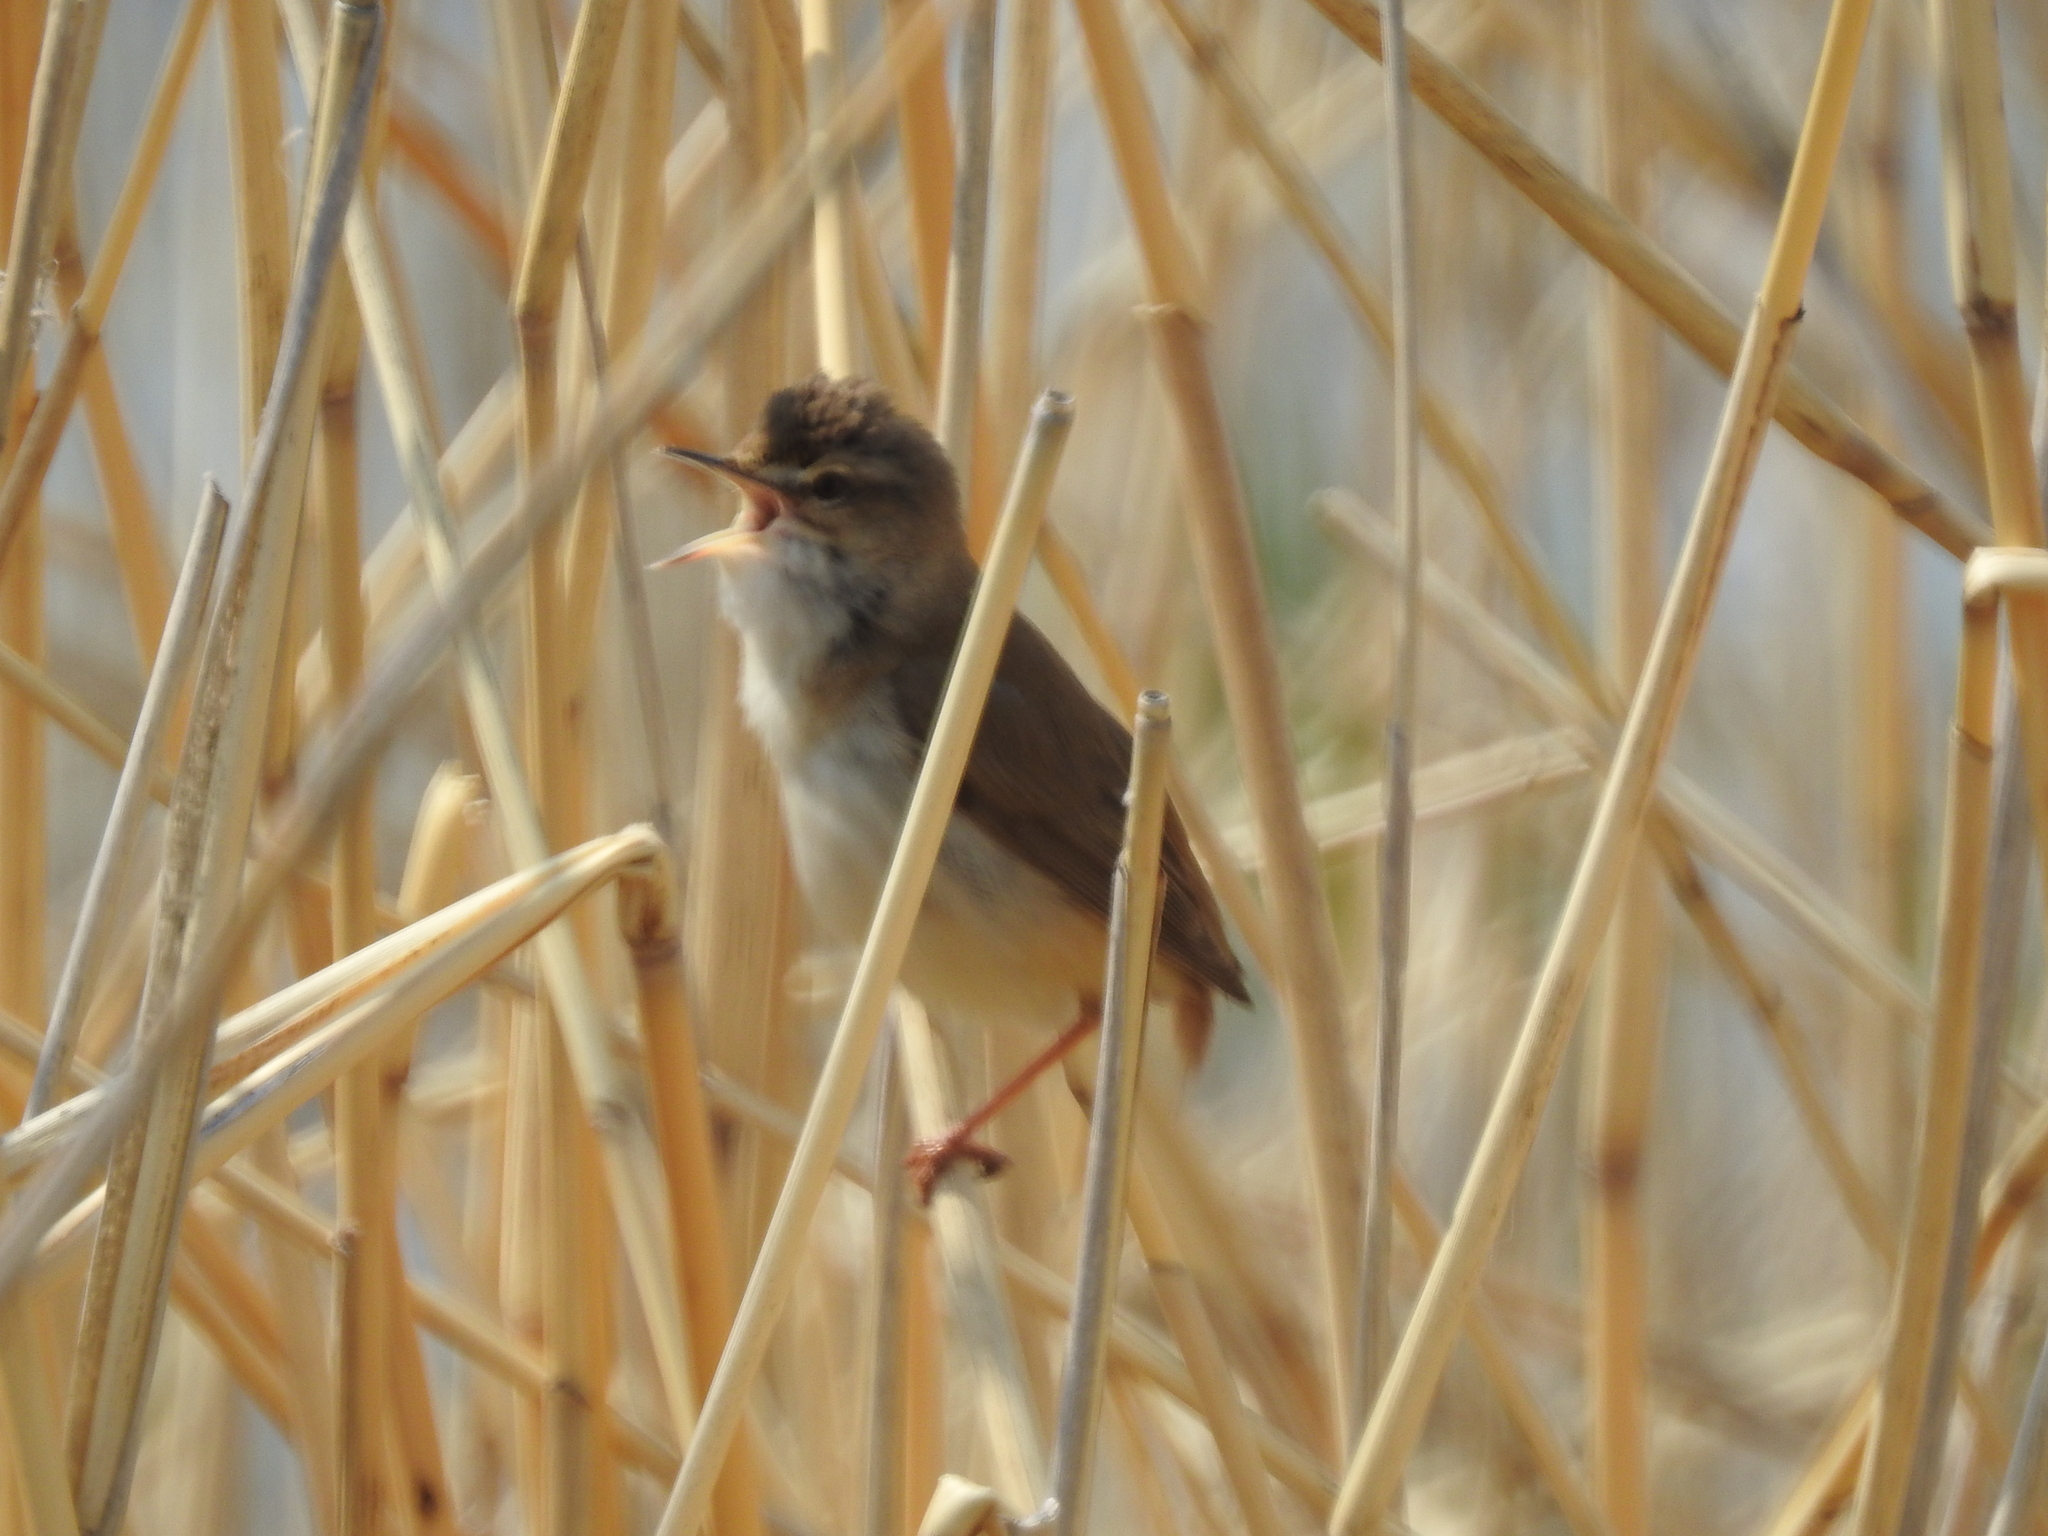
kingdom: Animalia
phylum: Chordata
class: Aves
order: Passeriformes
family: Acrocephalidae
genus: Acrocephalus
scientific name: Acrocephalus agricola
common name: Paddyfield warbler
